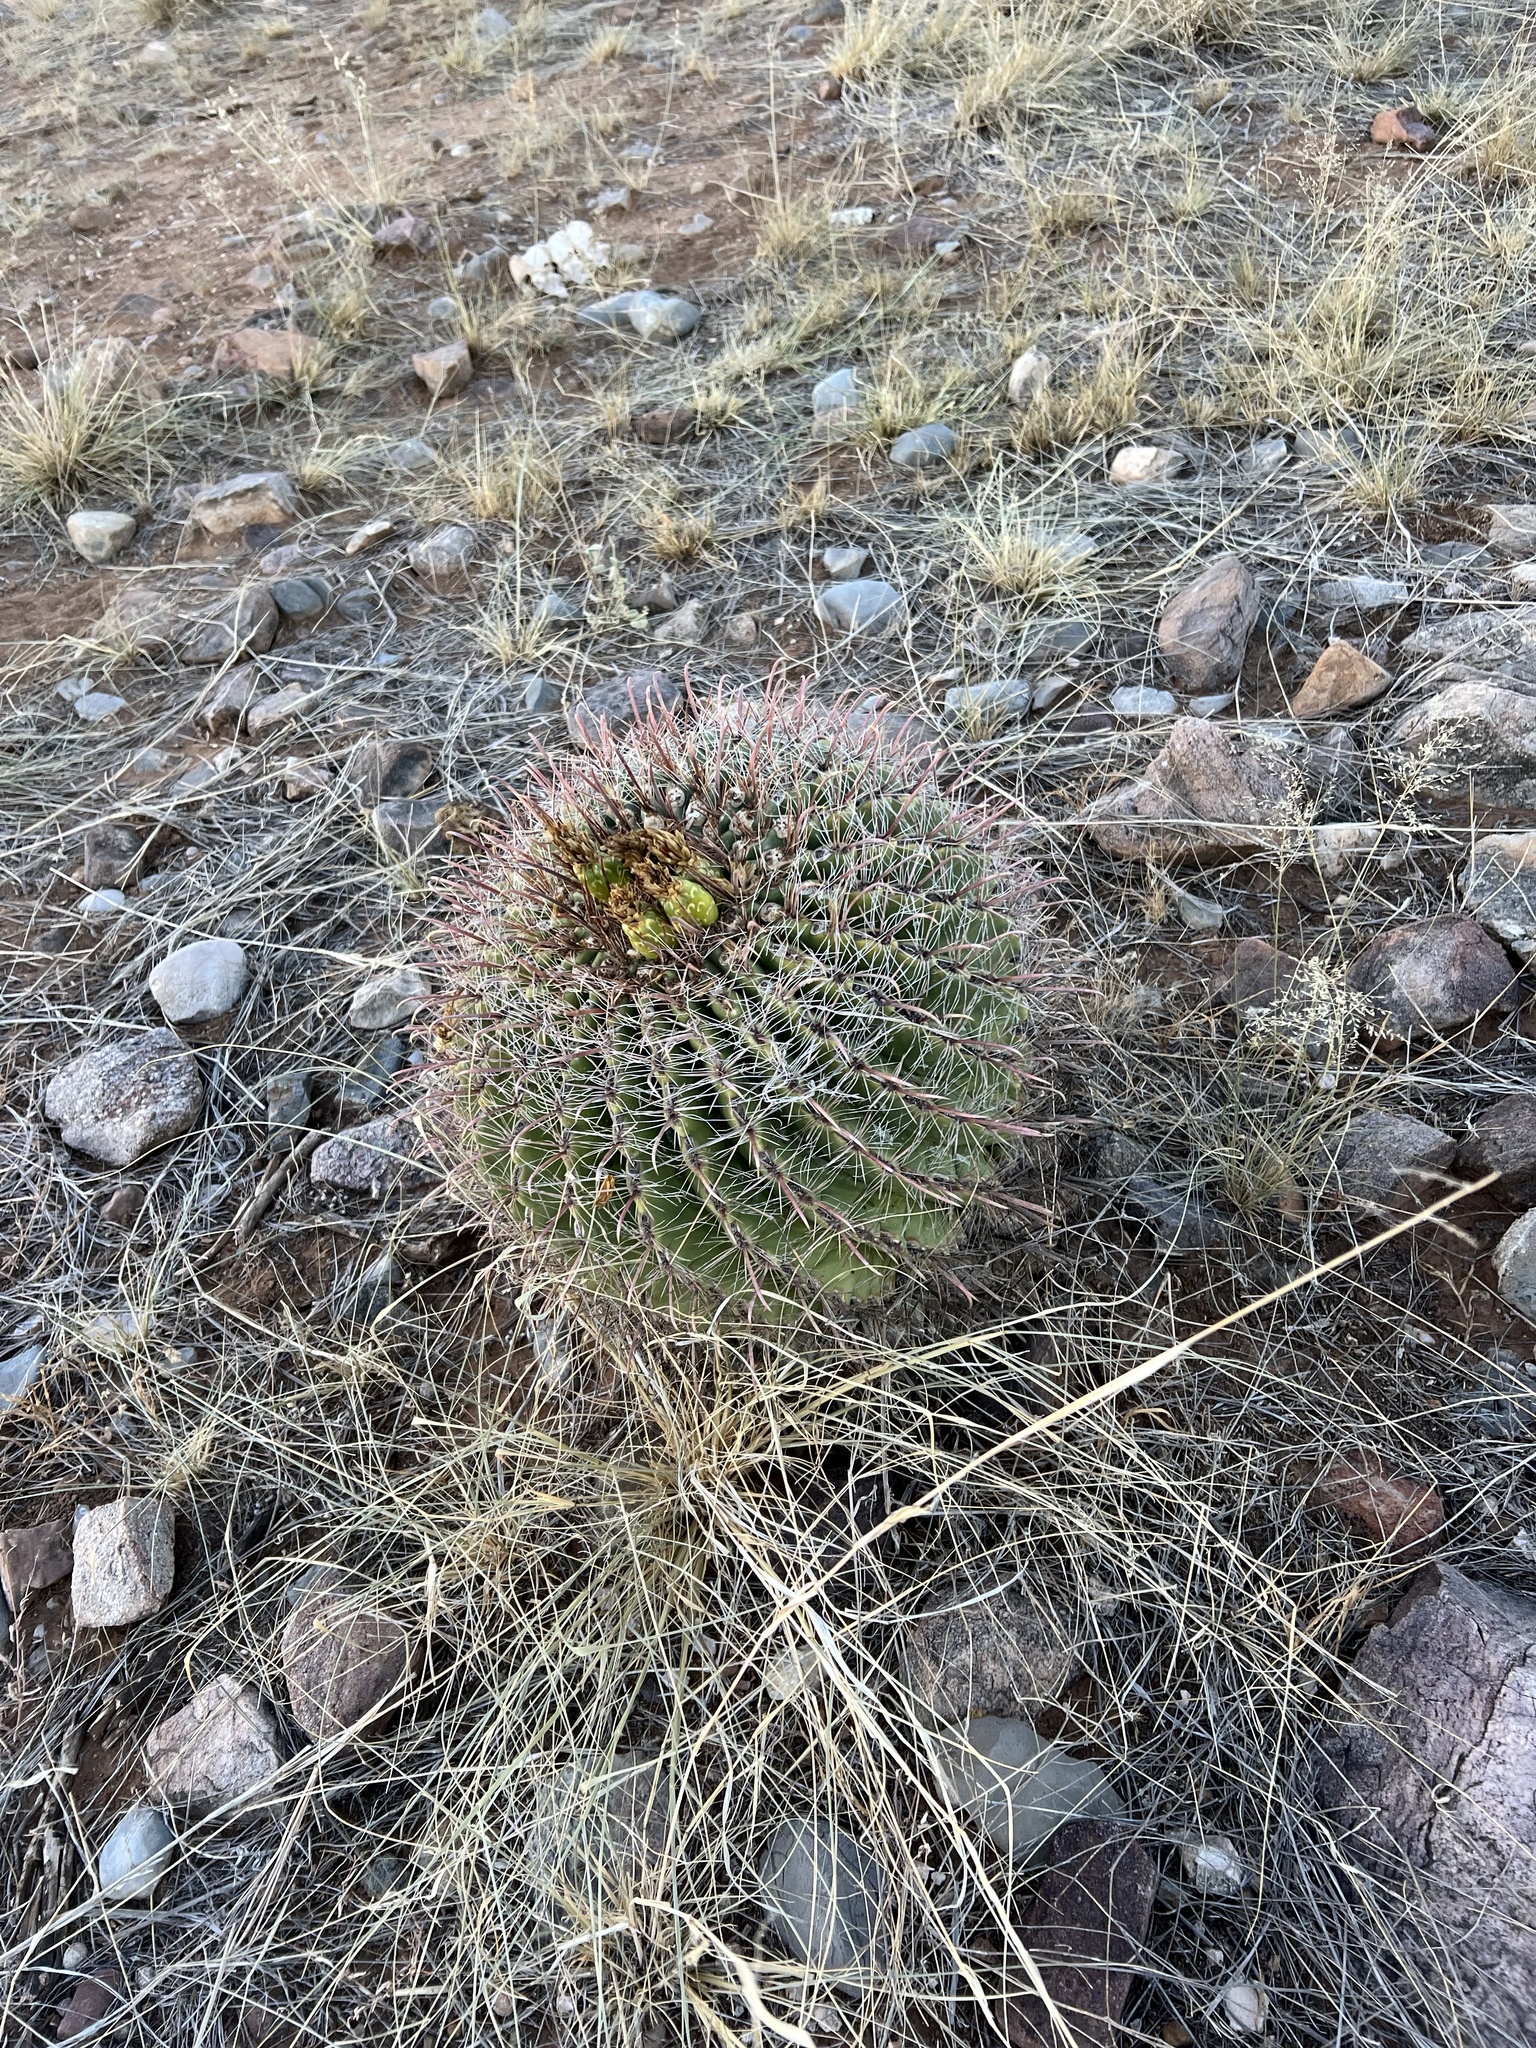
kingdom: Plantae
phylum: Tracheophyta
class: Magnoliopsida
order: Caryophyllales
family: Cactaceae
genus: Ferocactus
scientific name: Ferocactus wislizeni
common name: Candy barrel cactus
